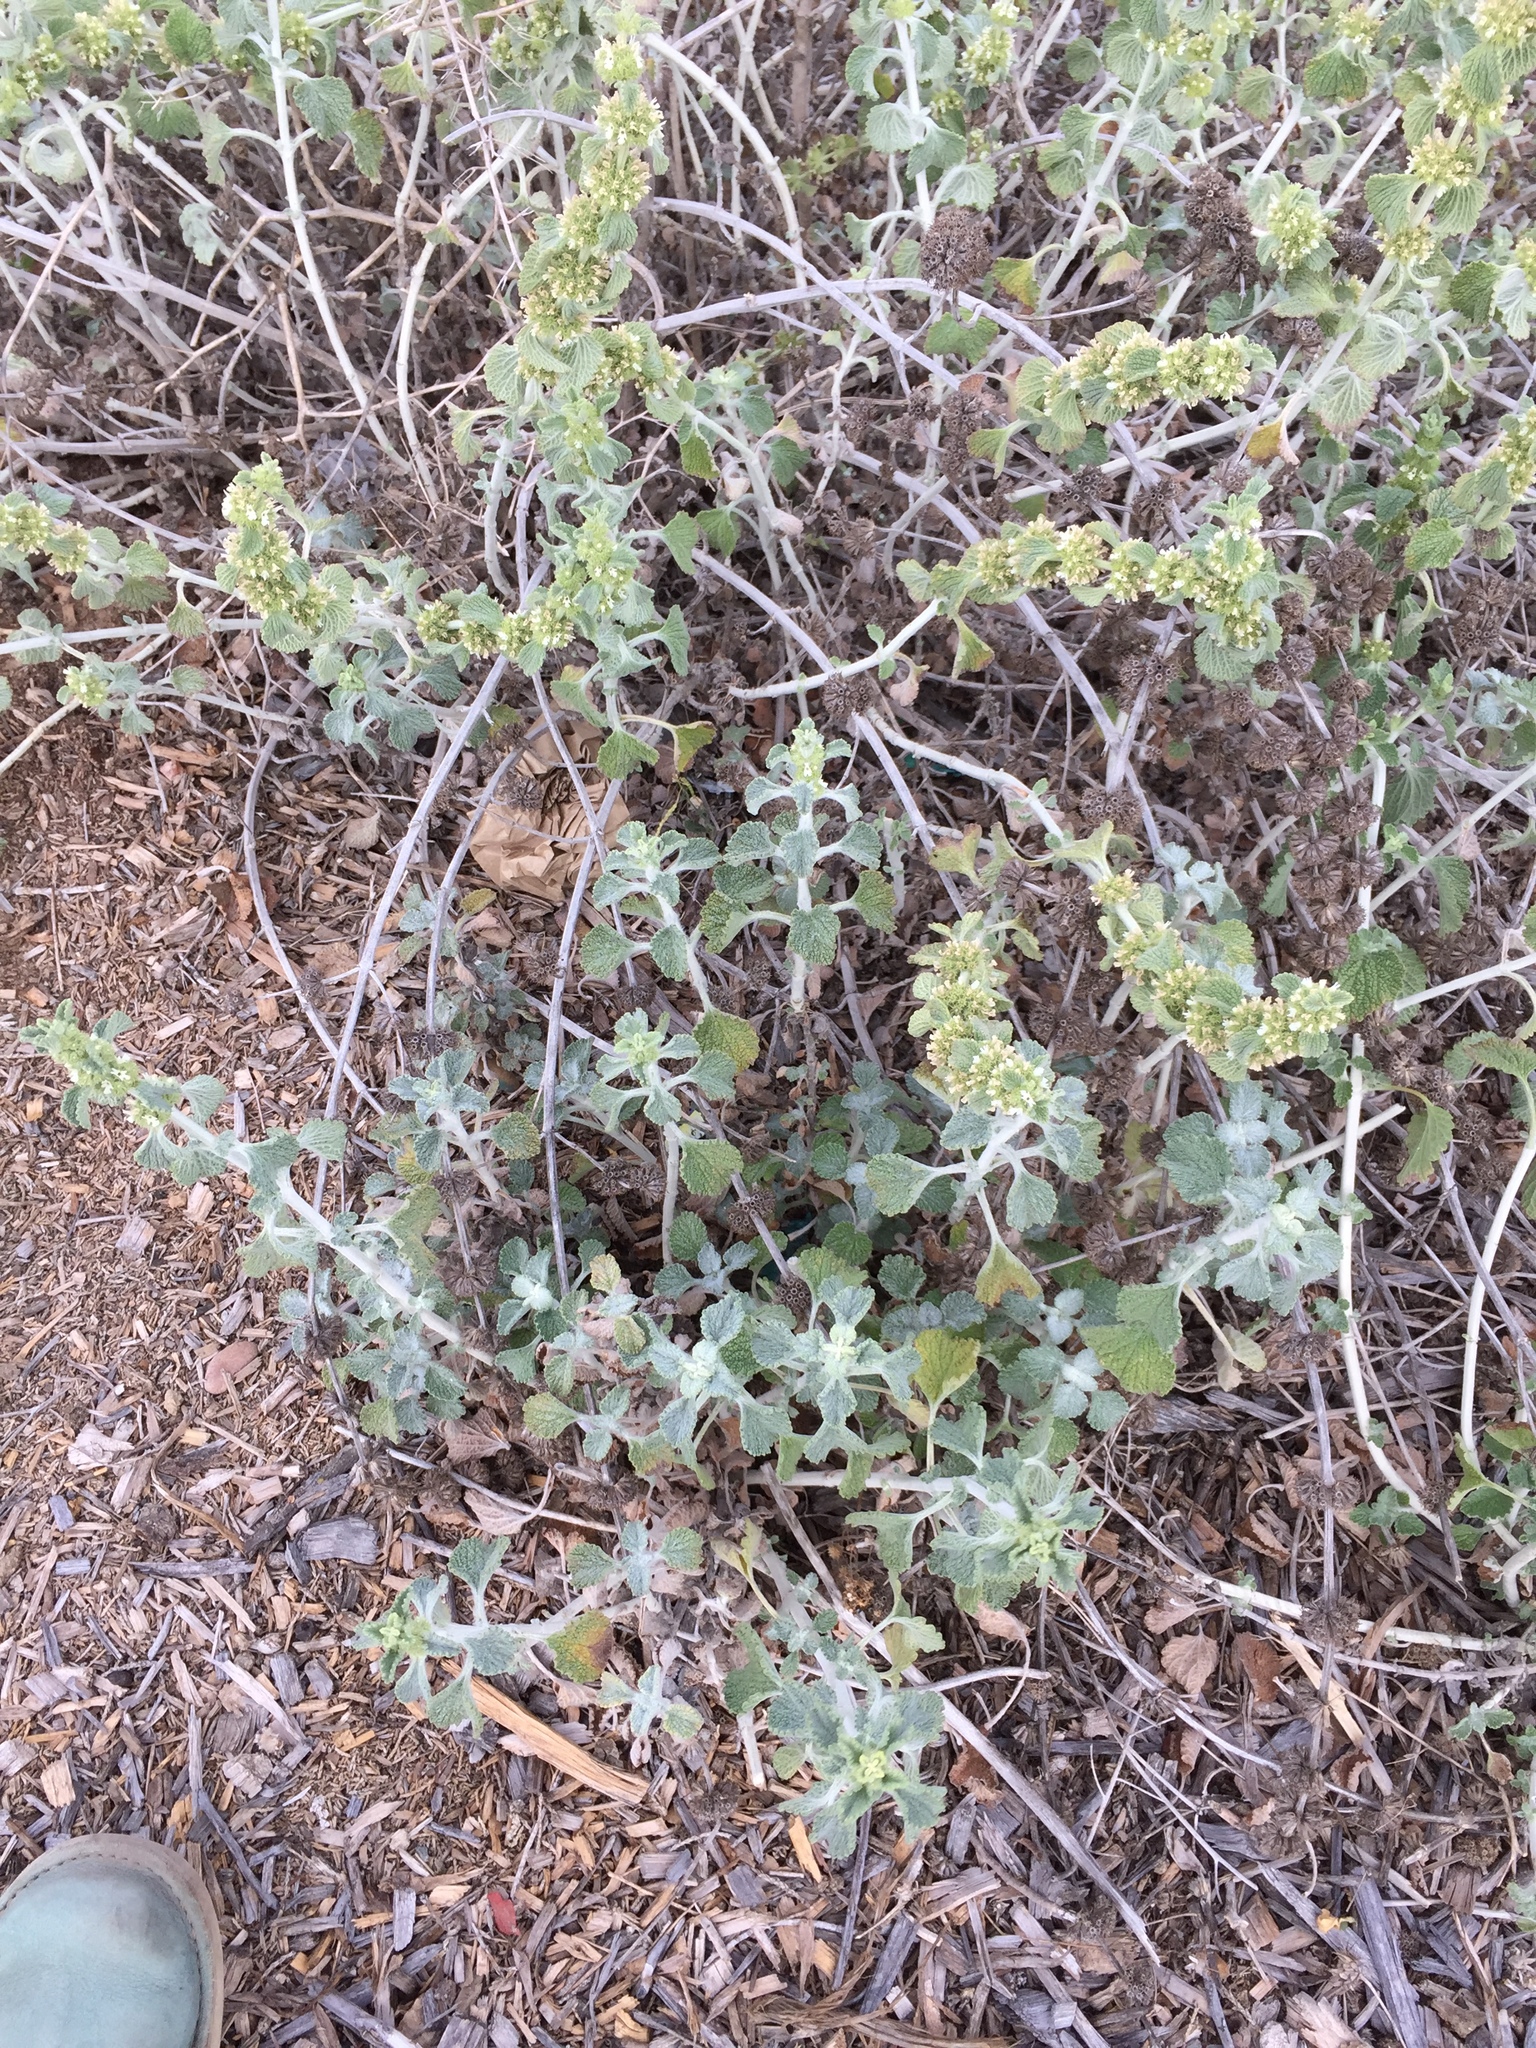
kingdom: Plantae
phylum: Tracheophyta
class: Magnoliopsida
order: Lamiales
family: Lamiaceae
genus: Marrubium
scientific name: Marrubium vulgare
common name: Horehound
